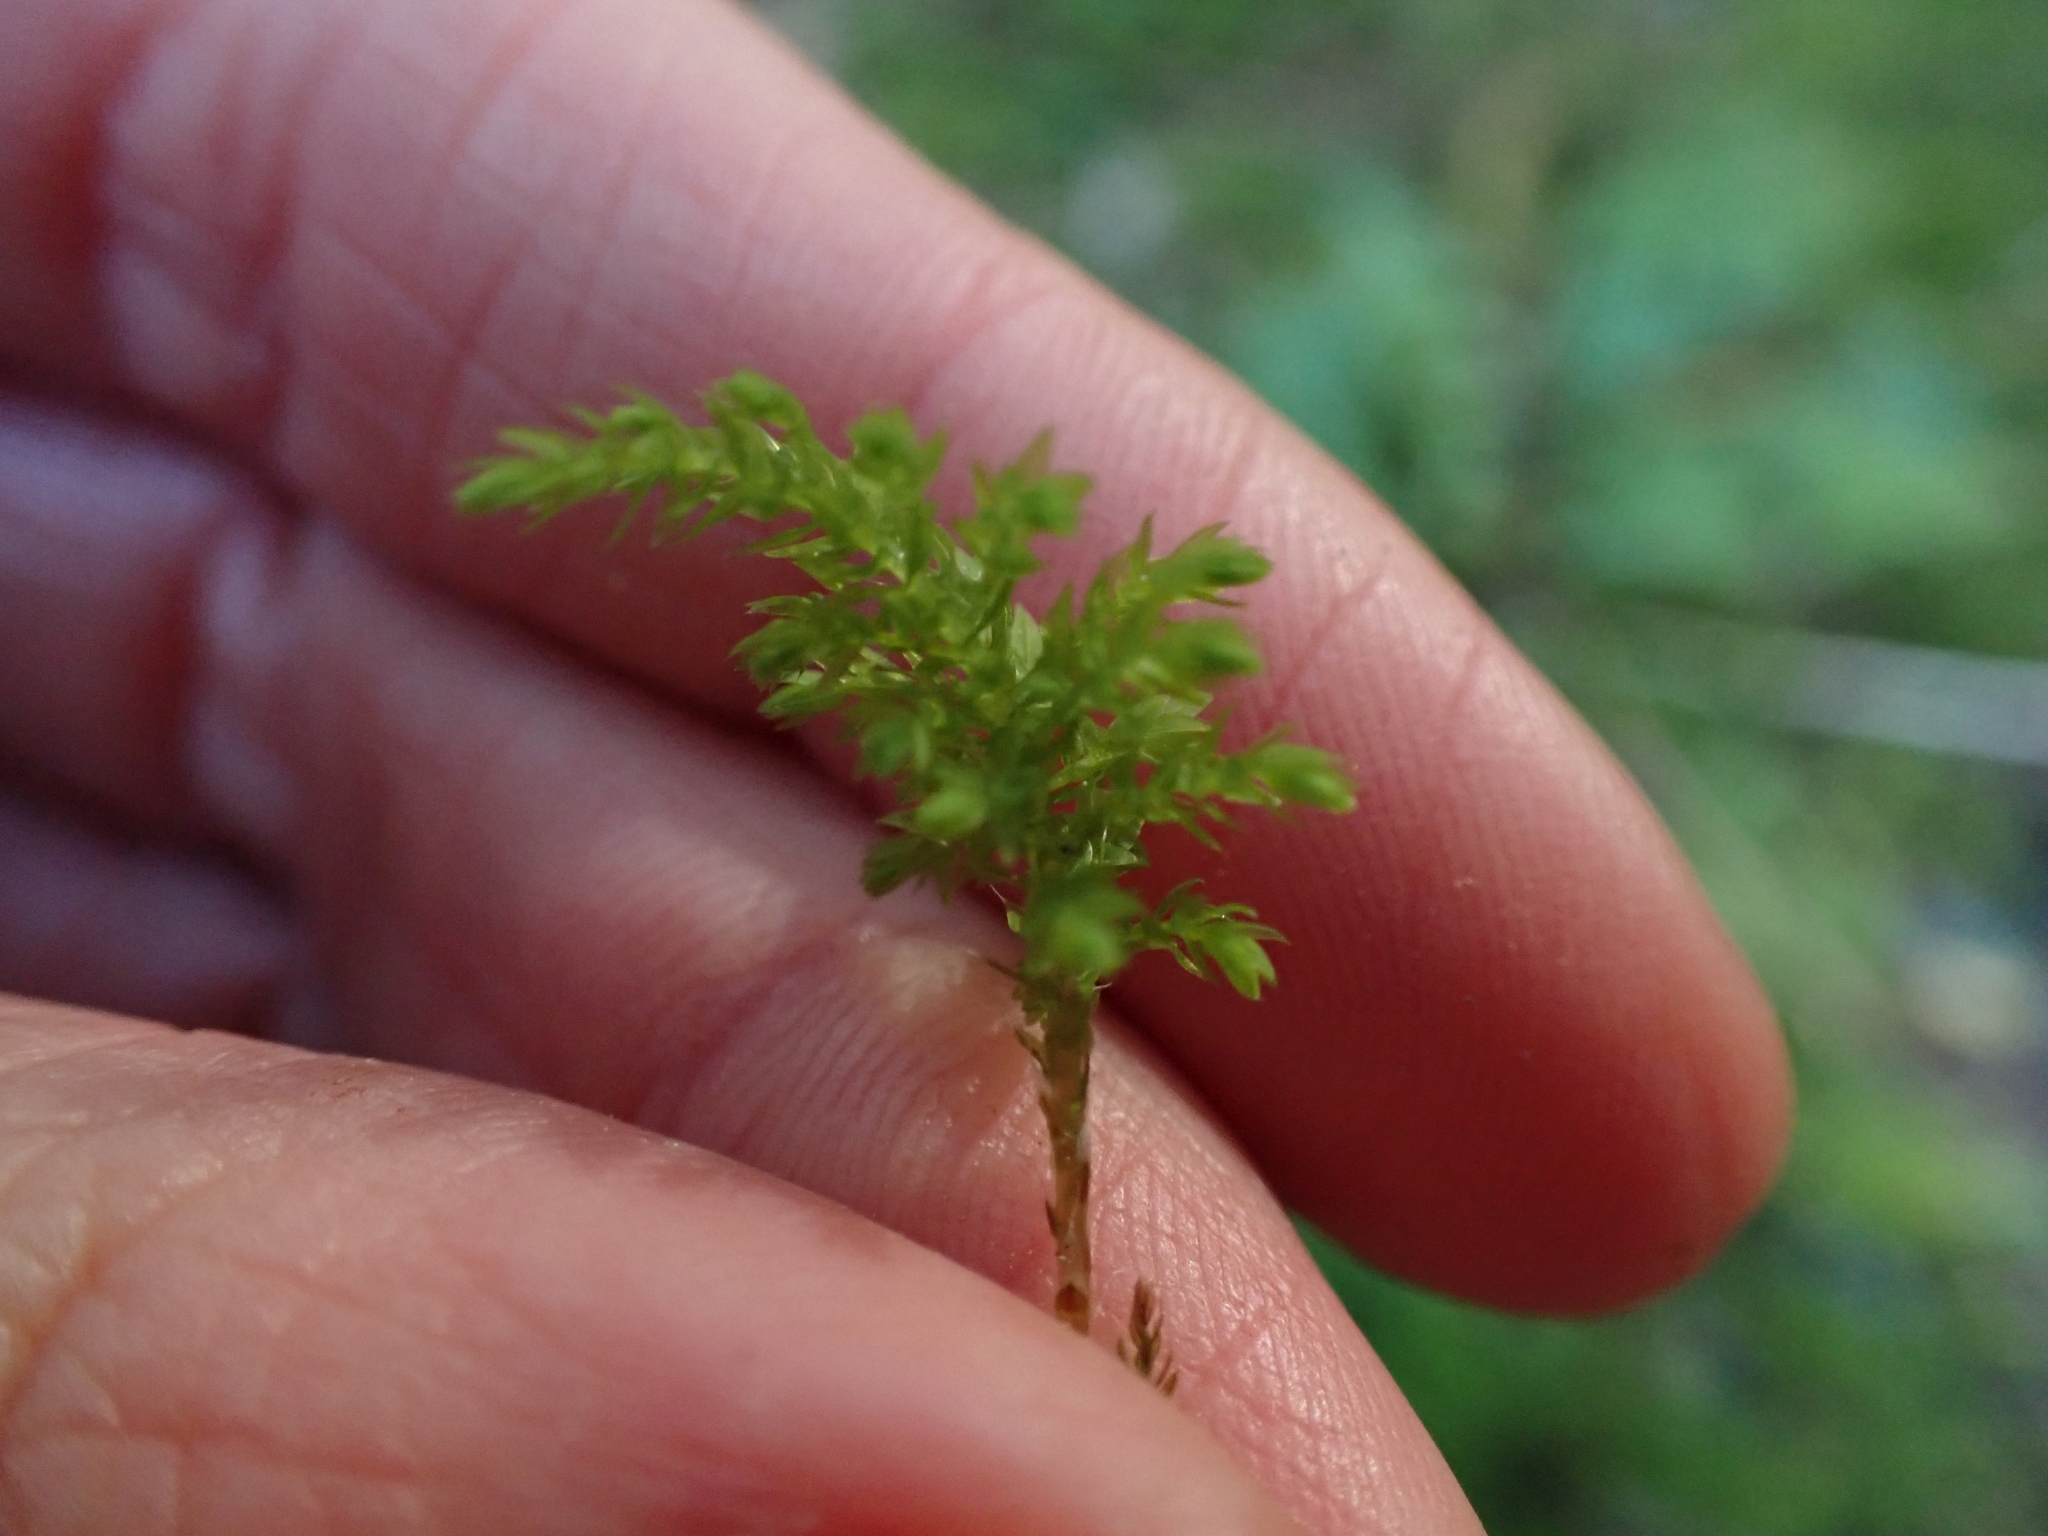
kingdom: Plantae
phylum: Bryophyta
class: Bryopsida
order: Bryales
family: Mniaceae
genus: Leucolepis
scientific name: Leucolepis acanthoneura
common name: Leucolepis umbrella moss
